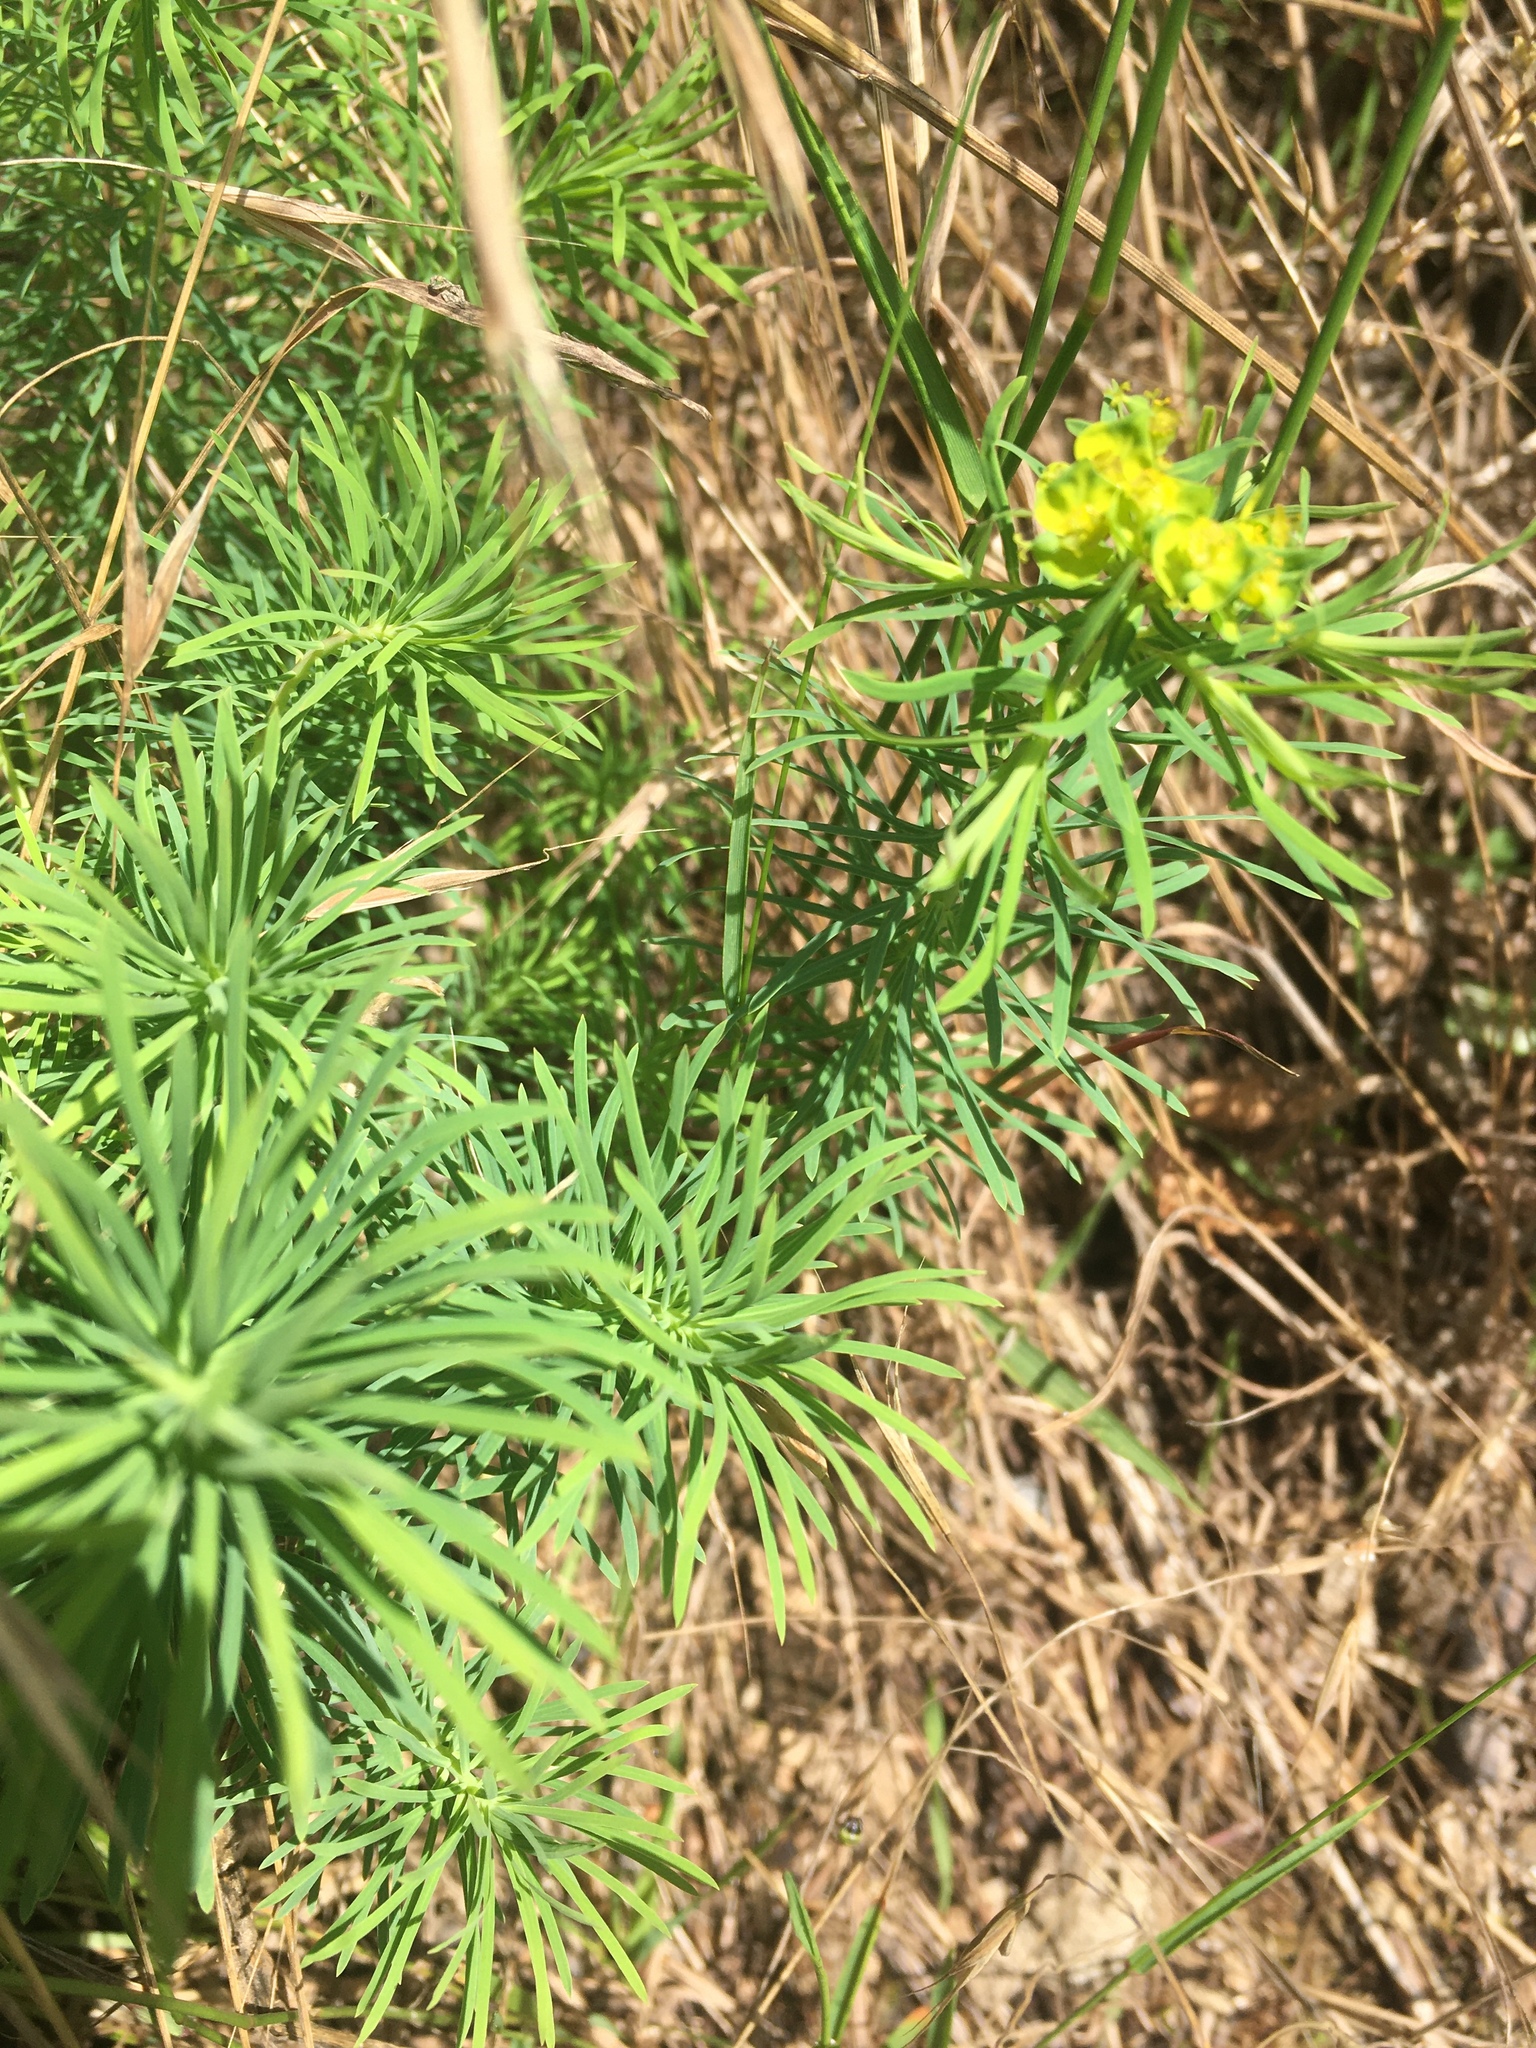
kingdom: Plantae
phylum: Tracheophyta
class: Magnoliopsida
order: Malpighiales
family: Euphorbiaceae
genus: Euphorbia
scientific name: Euphorbia cyparissias
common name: Cypress spurge
